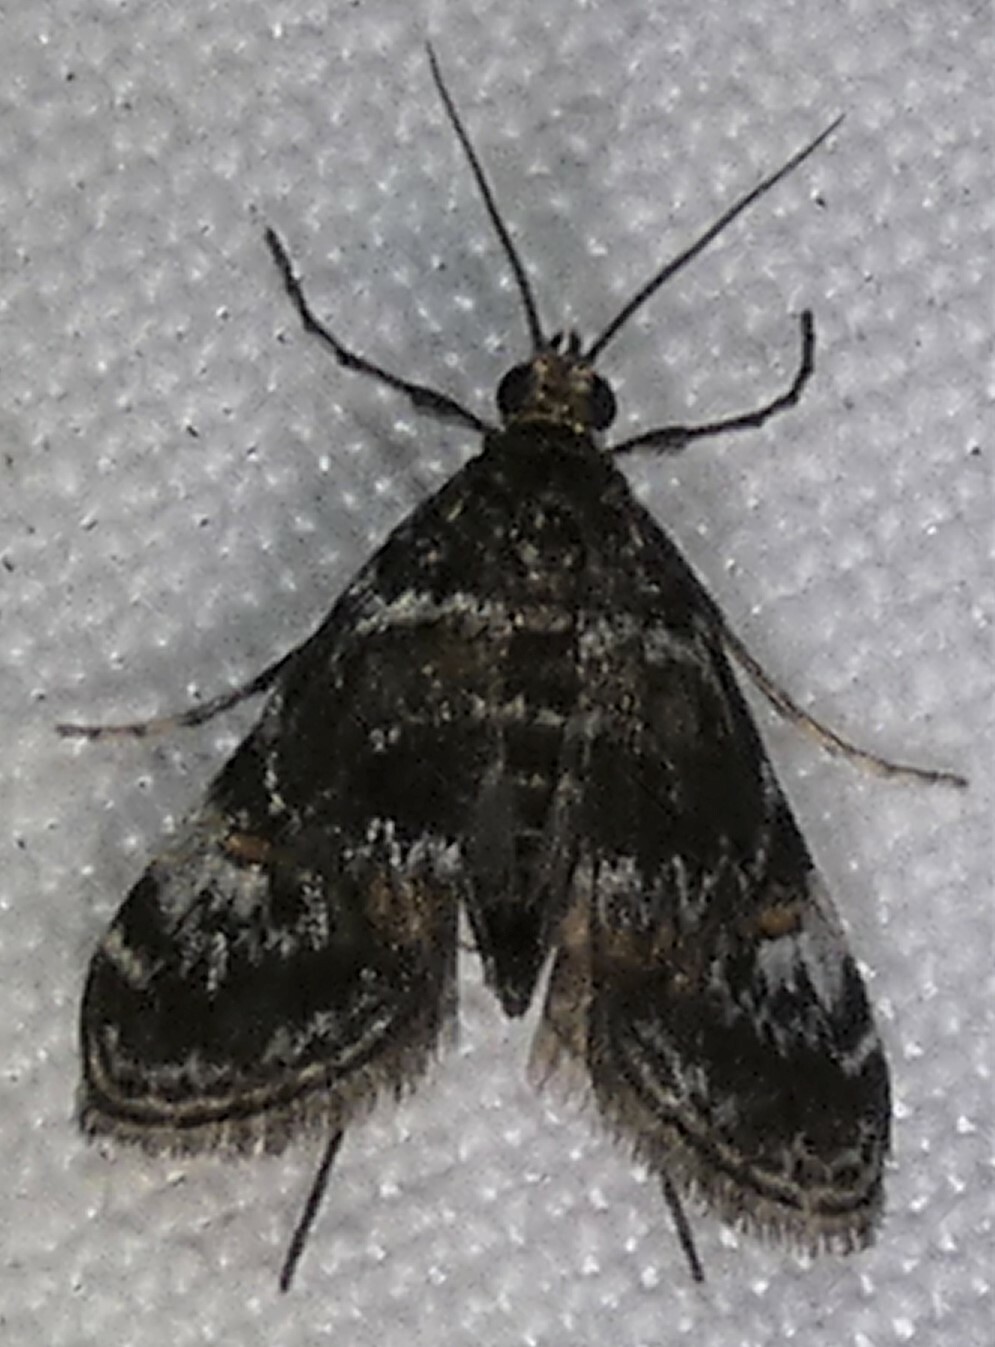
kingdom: Animalia
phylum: Arthropoda
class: Insecta
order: Lepidoptera
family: Crambidae
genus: Elophila
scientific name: Elophila obliteralis
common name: Waterlily leafcutter moth
